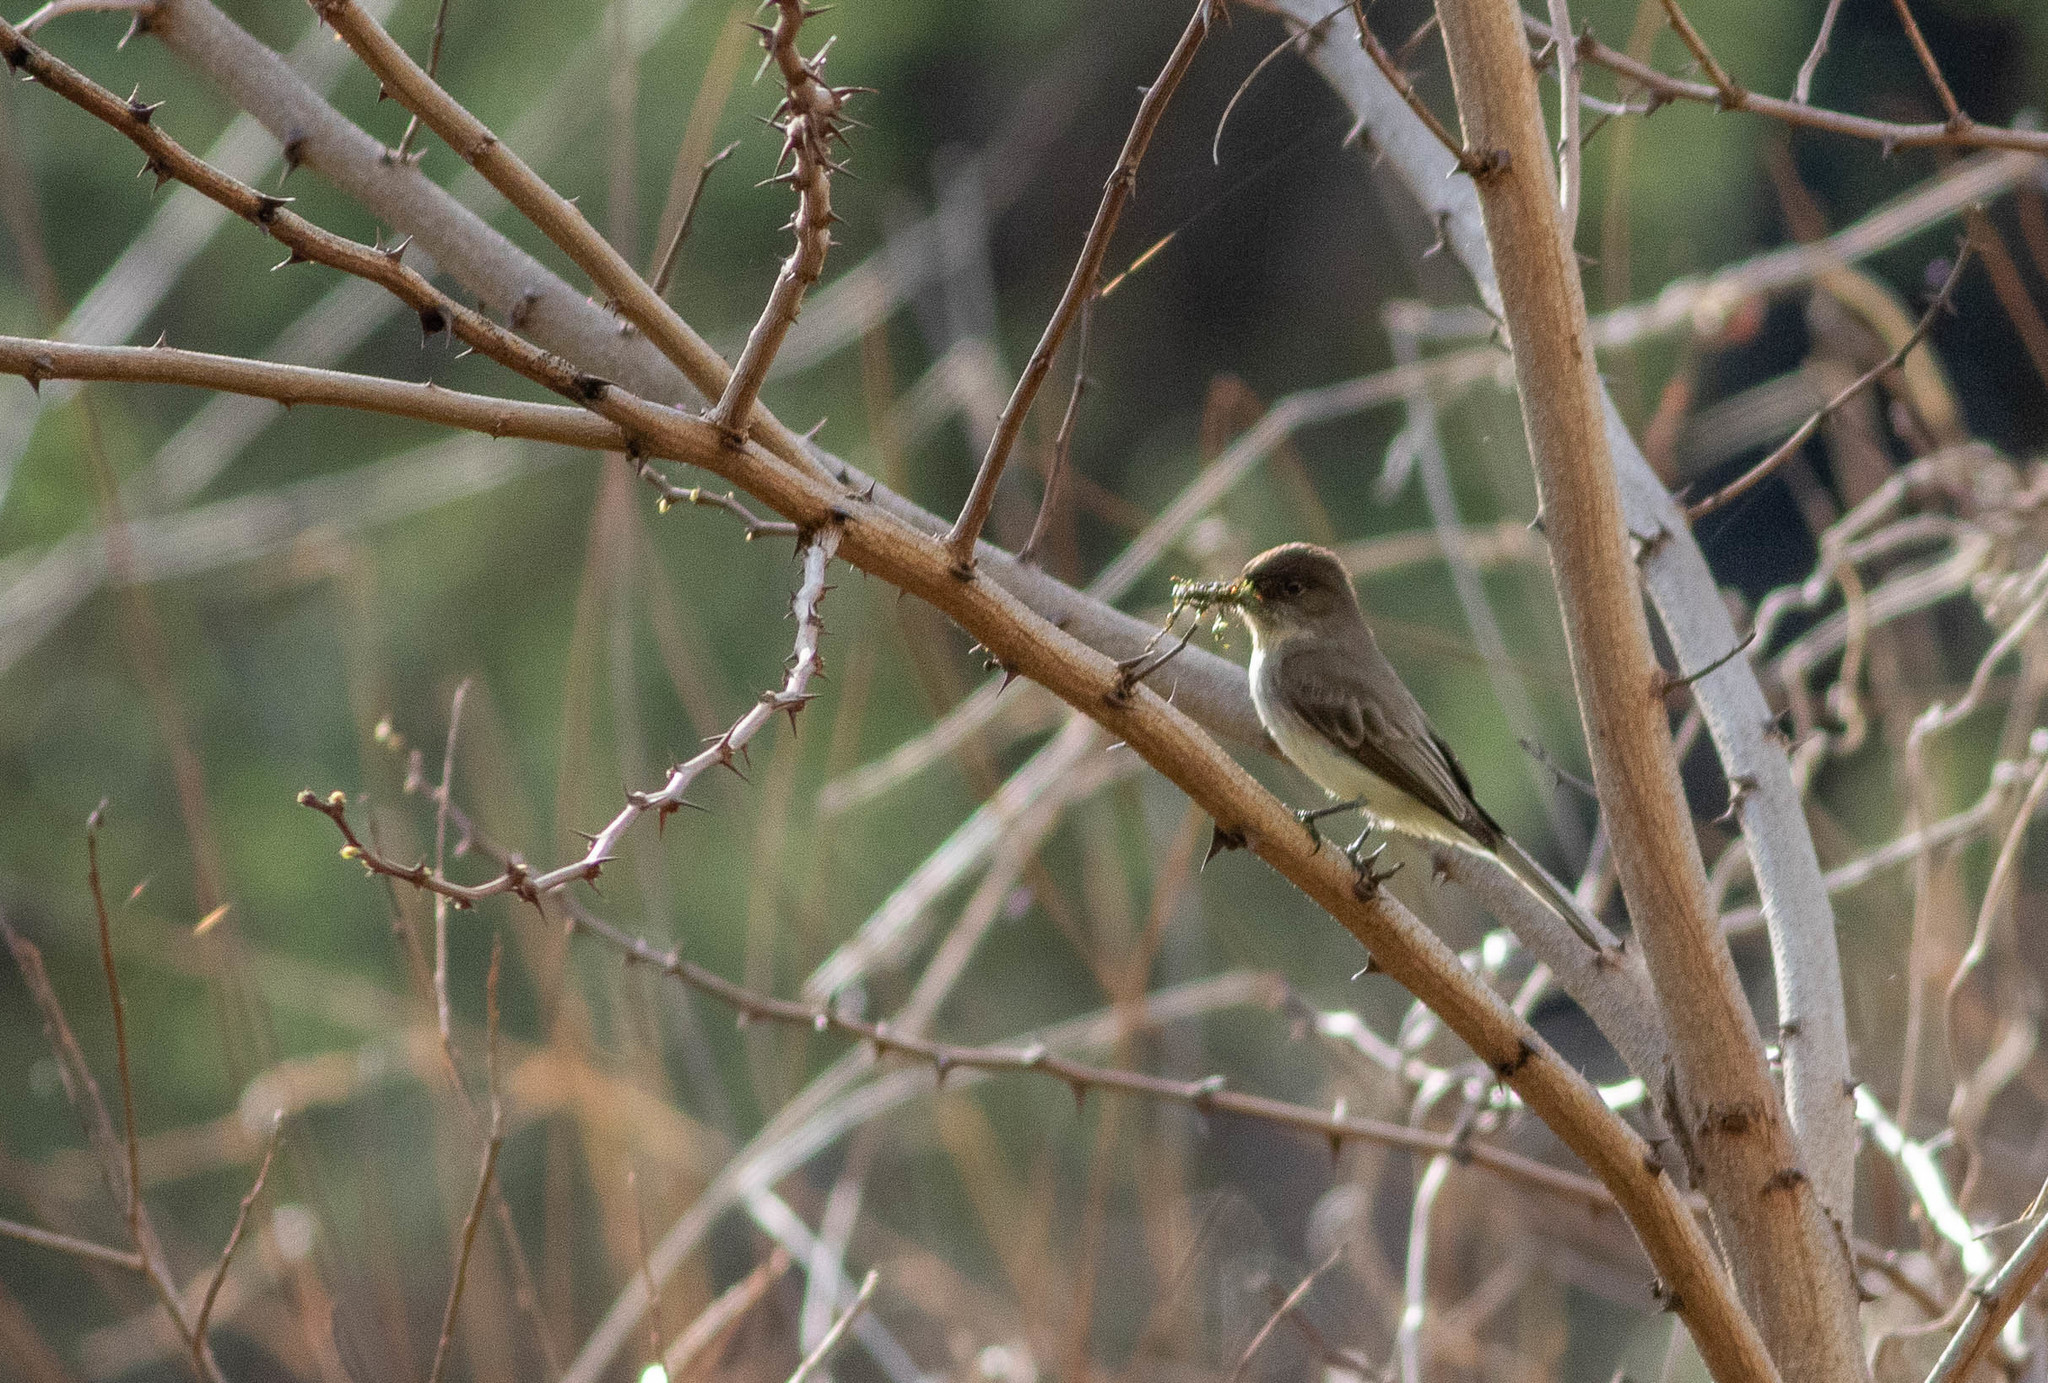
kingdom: Animalia
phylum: Chordata
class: Aves
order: Passeriformes
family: Tyrannidae
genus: Sayornis
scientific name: Sayornis phoebe
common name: Eastern phoebe
